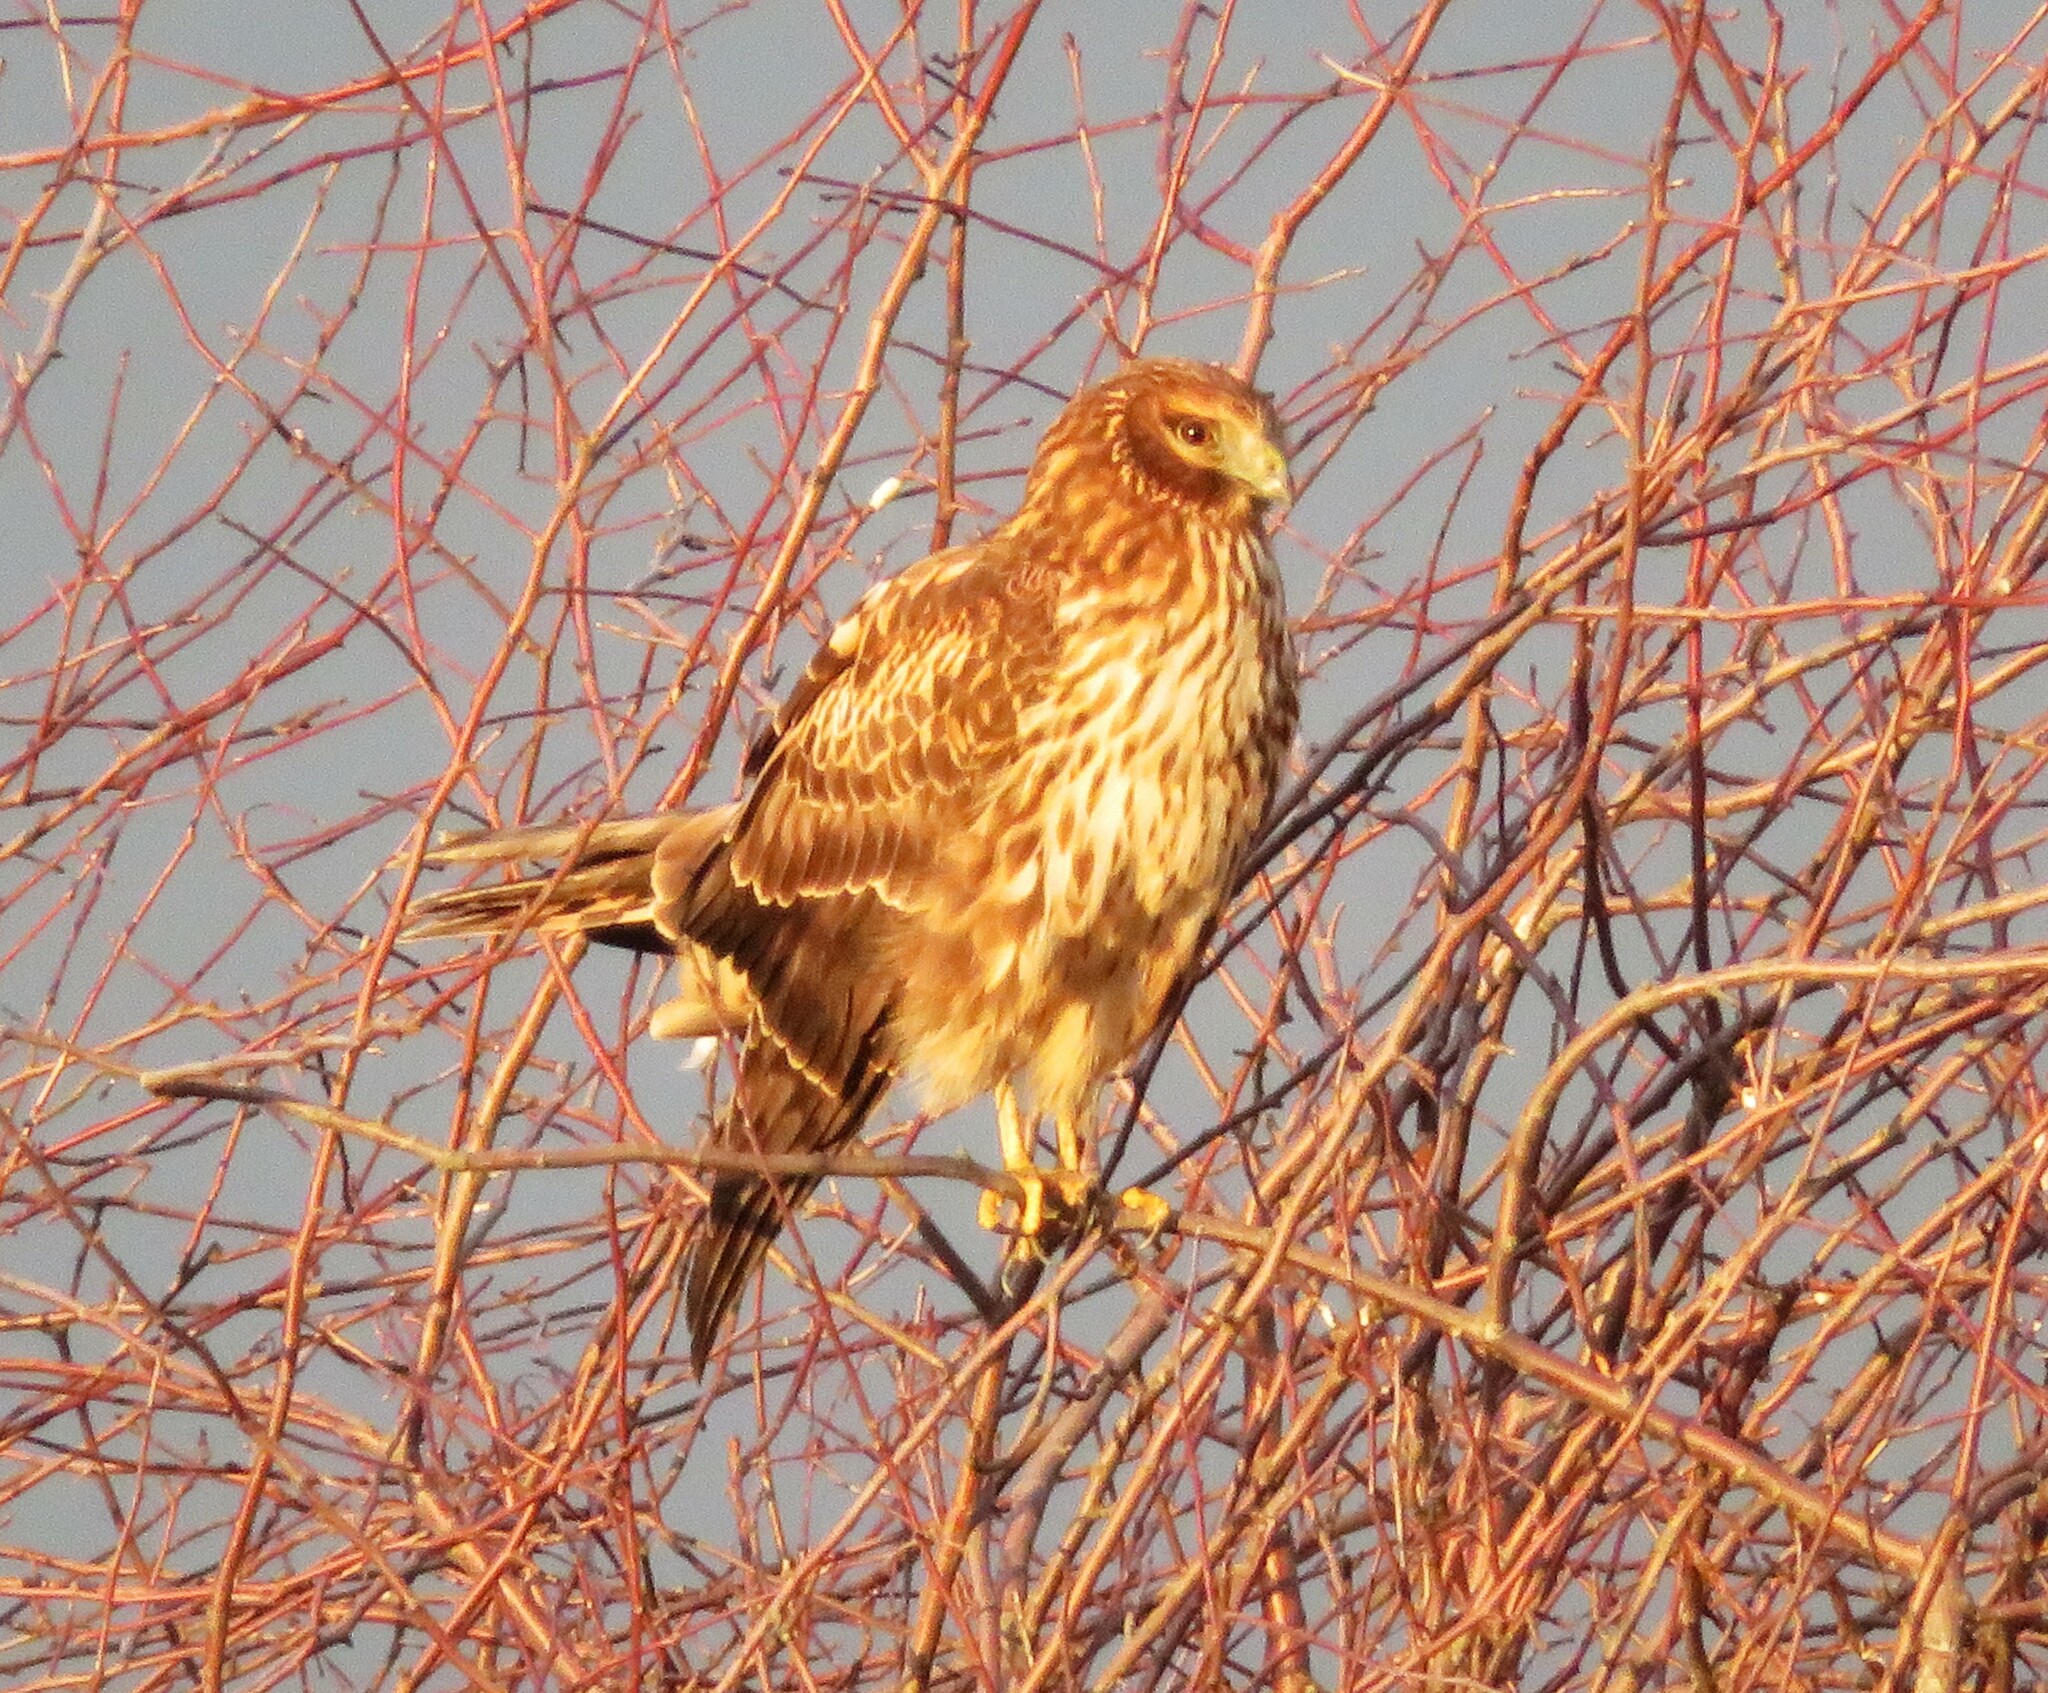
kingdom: Animalia
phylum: Chordata
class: Aves
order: Accipitriformes
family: Accipitridae
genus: Circus
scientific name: Circus cyaneus
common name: Hen harrier
